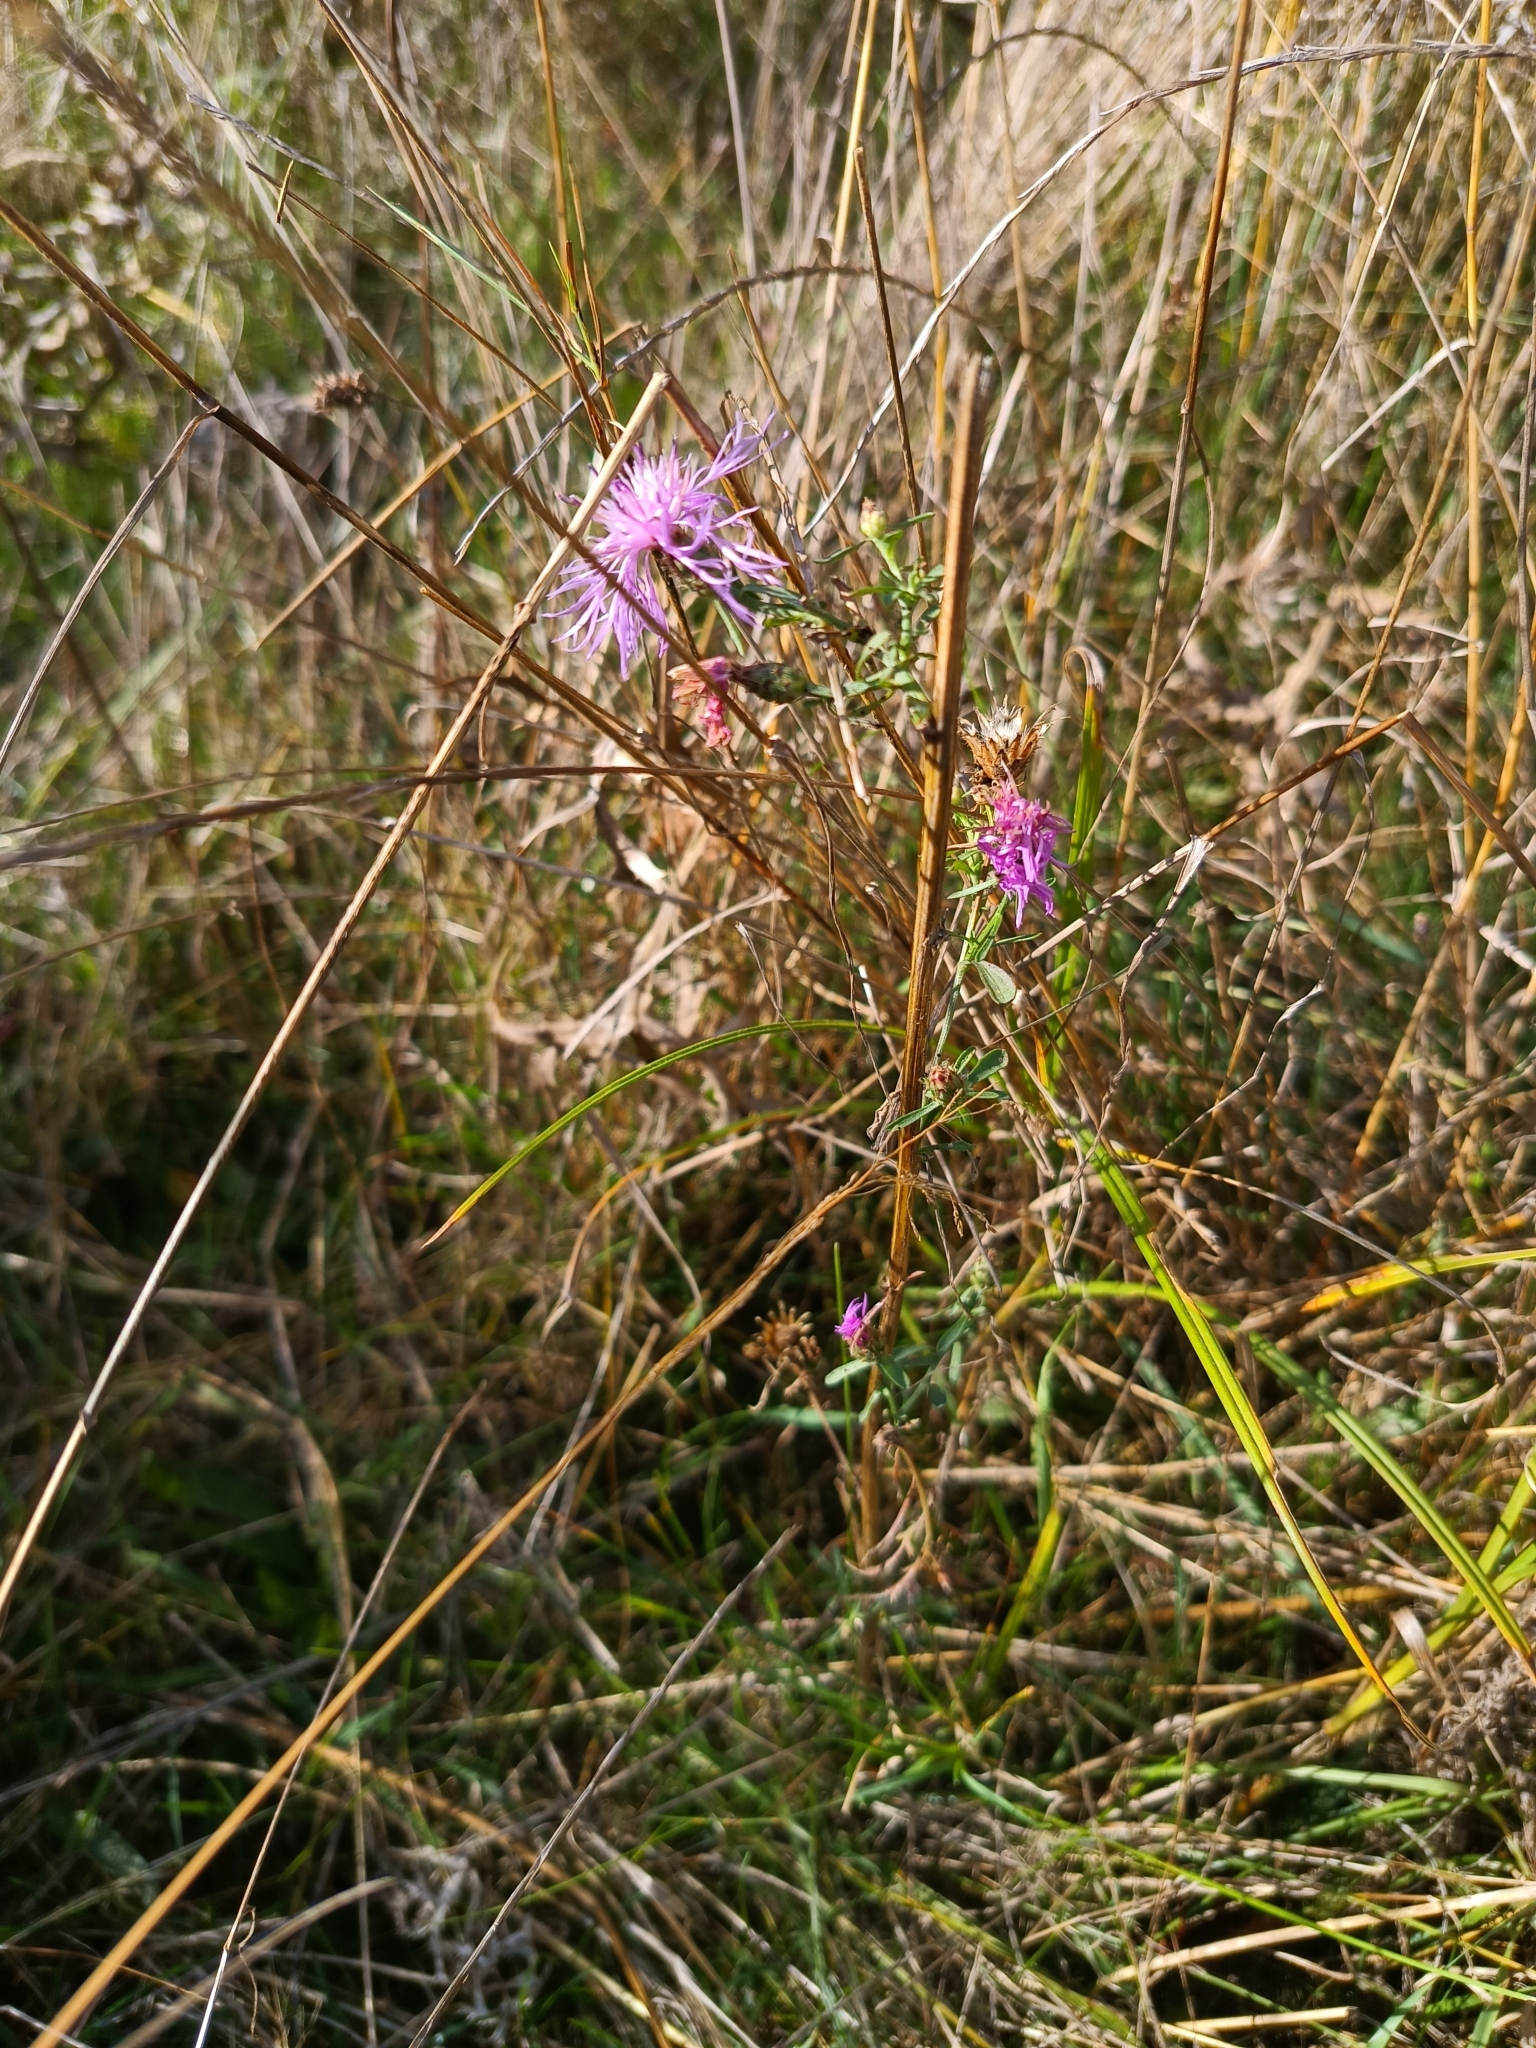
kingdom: Plantae
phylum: Tracheophyta
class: Magnoliopsida
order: Asterales
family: Asteraceae
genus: Centaurea
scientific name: Centaurea stoebe
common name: Spotted knapweed
